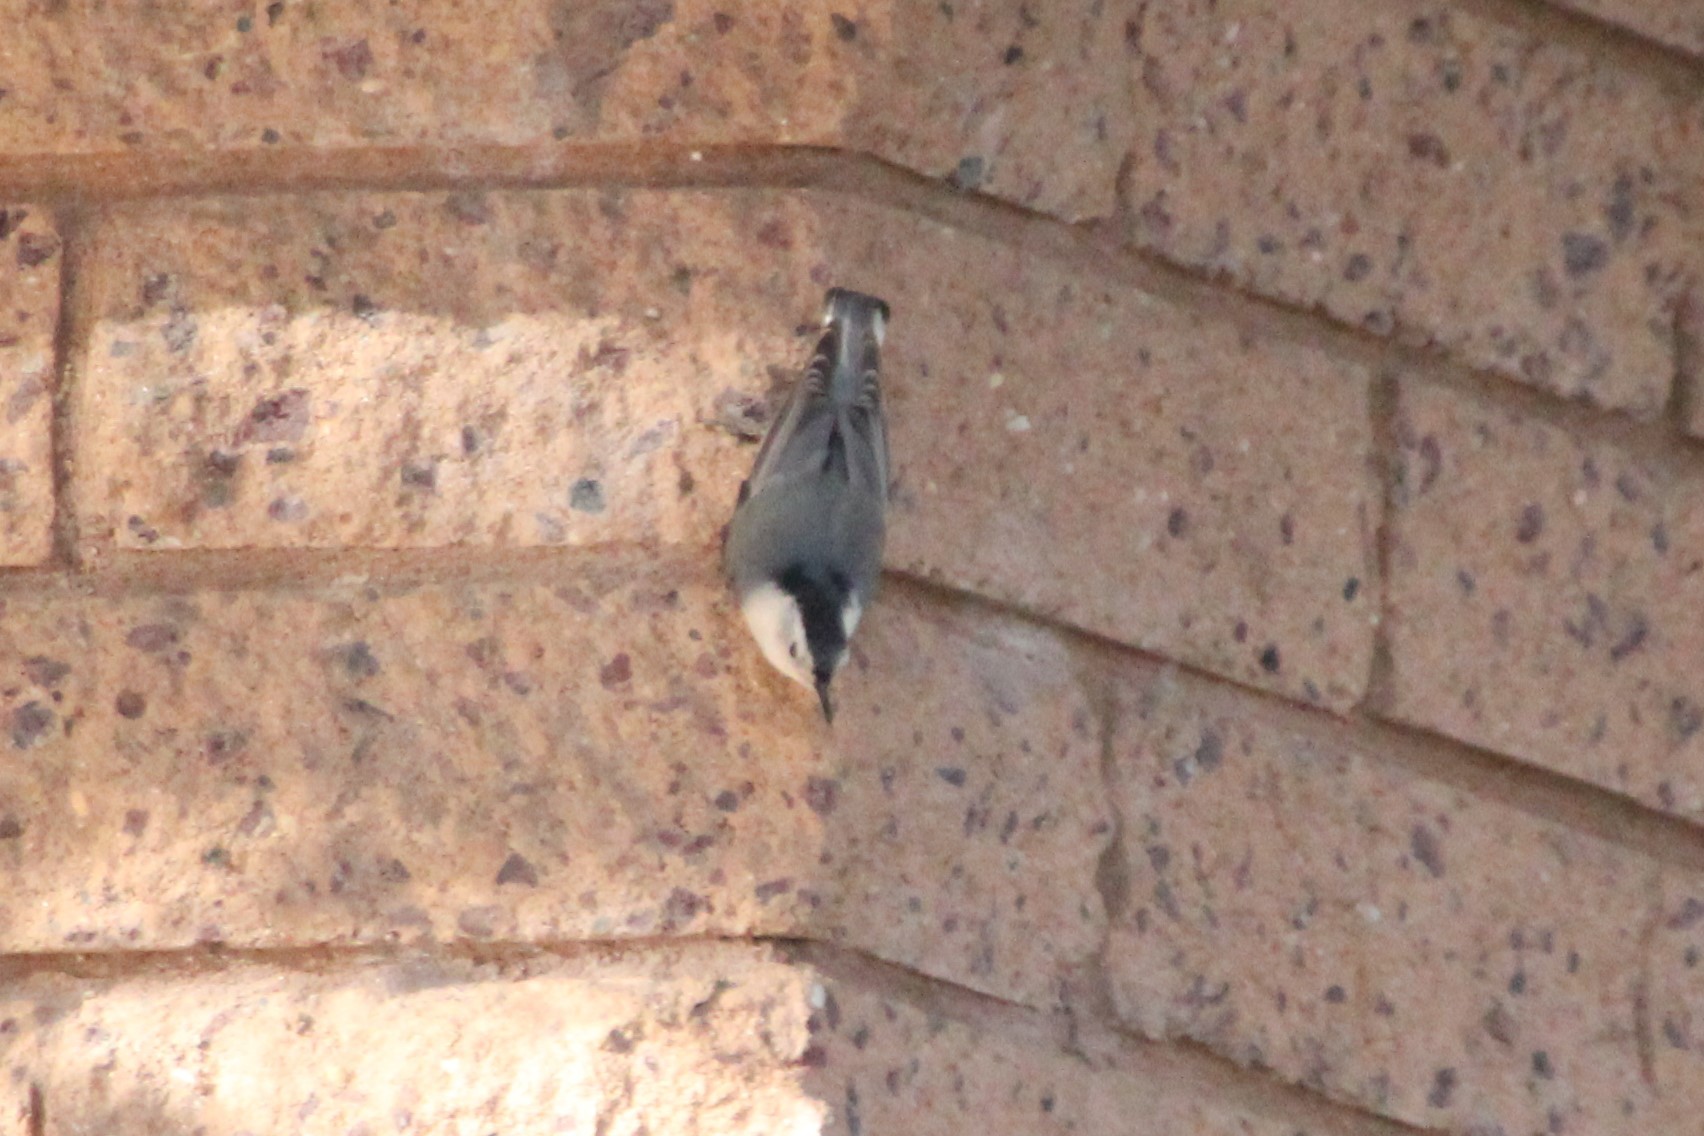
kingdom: Animalia
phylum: Chordata
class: Aves
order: Passeriformes
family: Sittidae
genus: Sitta
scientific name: Sitta carolinensis
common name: White-breasted nuthatch
